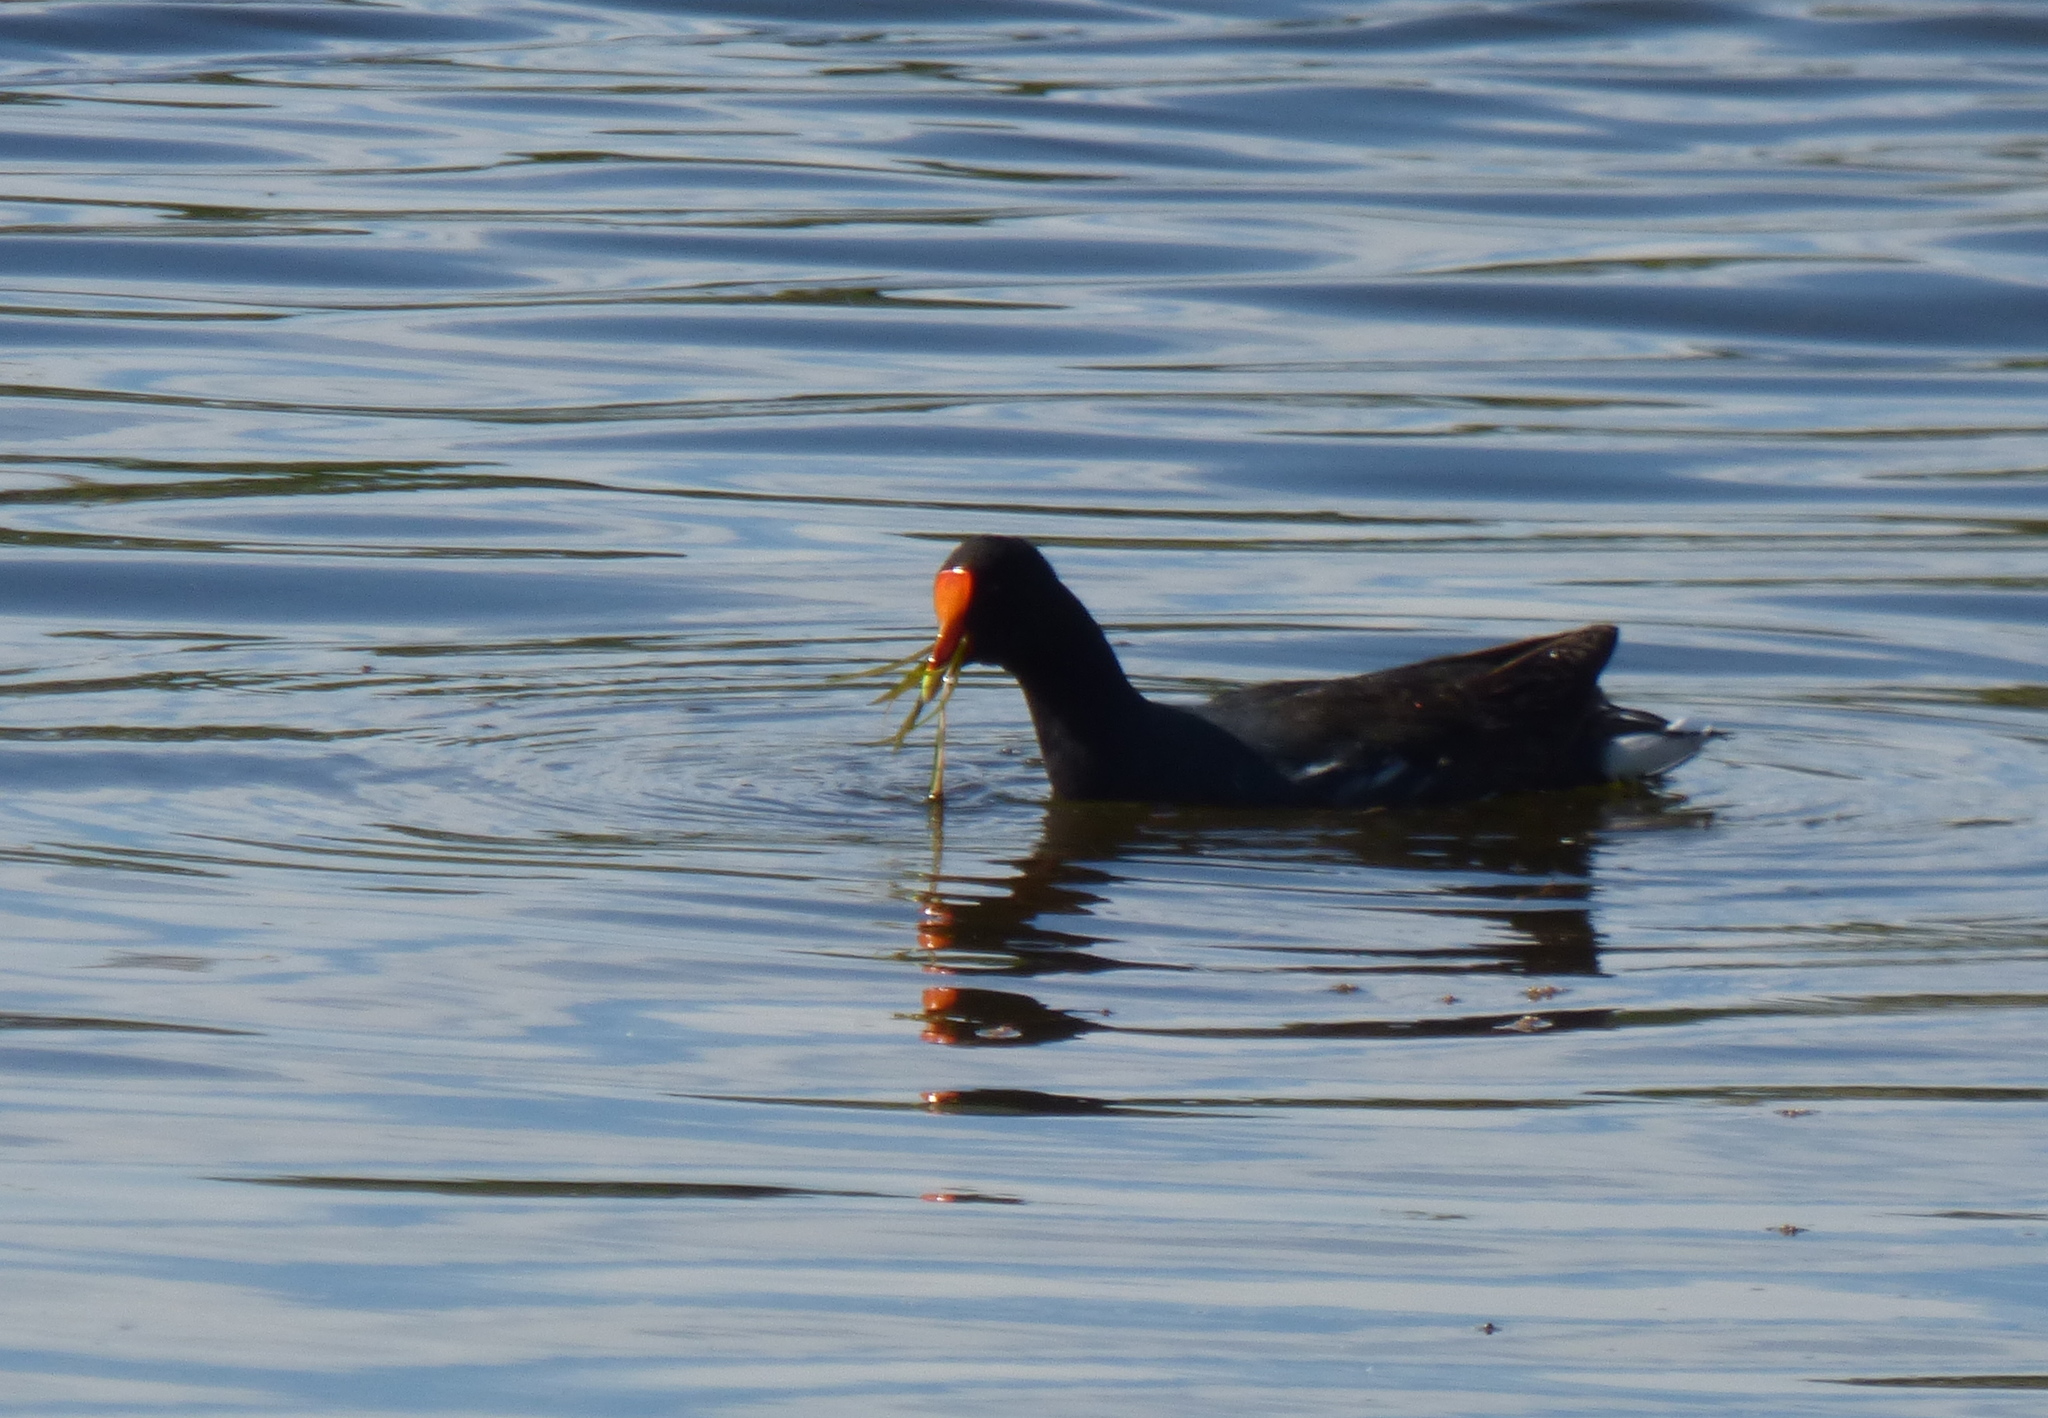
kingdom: Animalia
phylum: Chordata
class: Aves
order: Gruiformes
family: Rallidae
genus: Gallinula
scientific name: Gallinula chloropus
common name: Common moorhen
